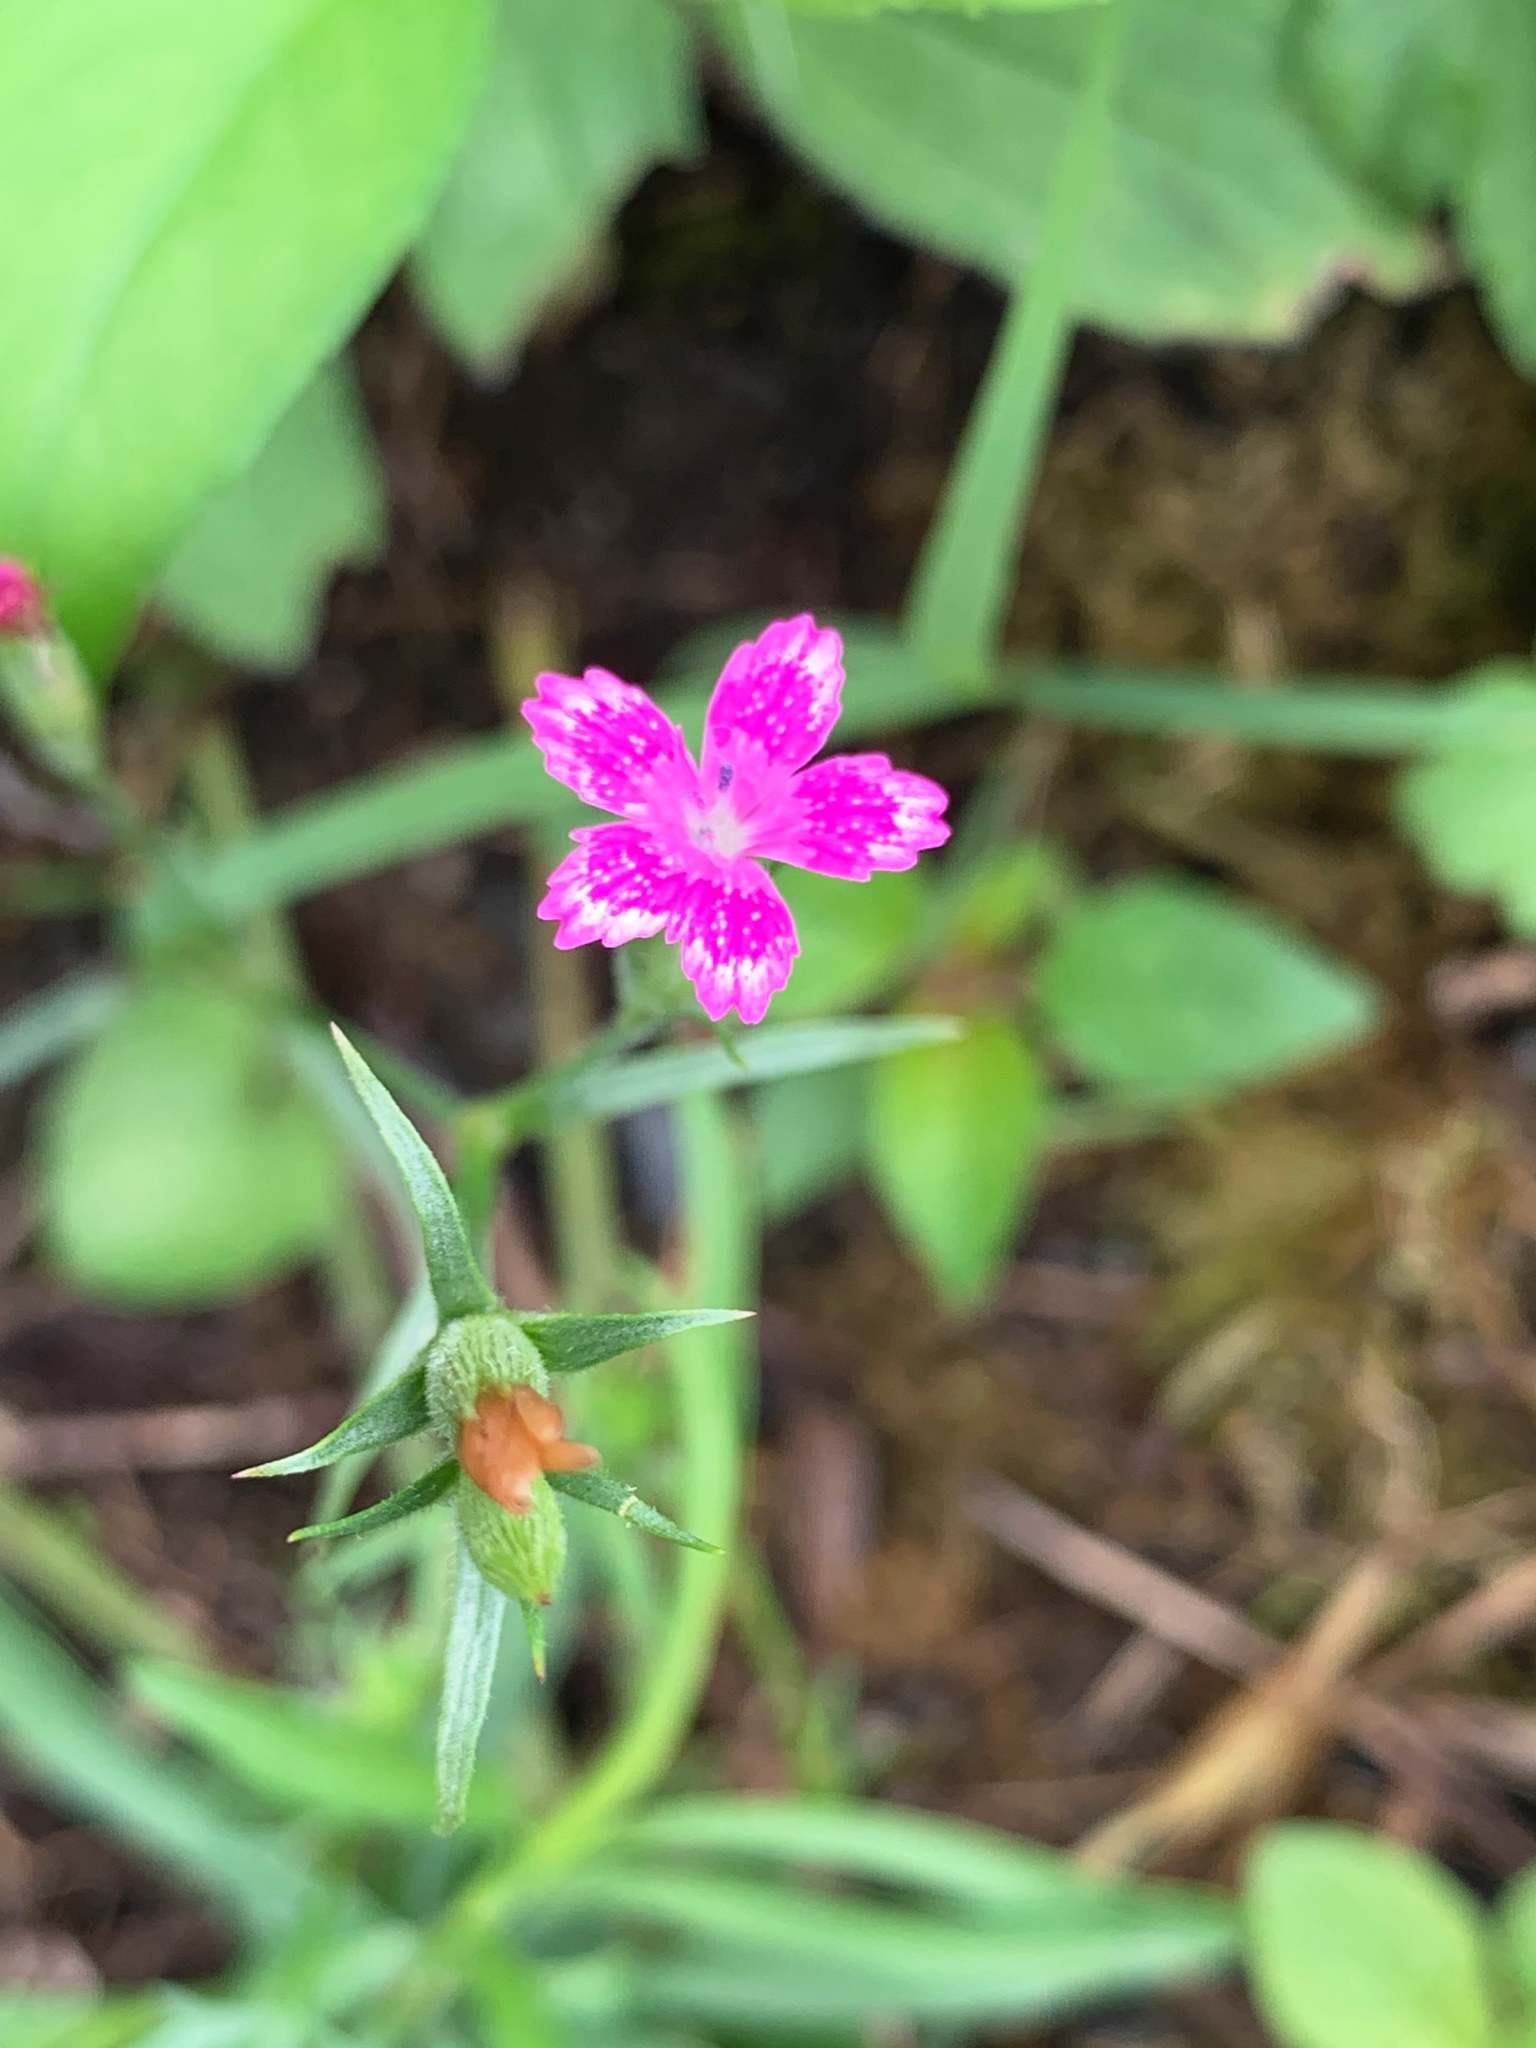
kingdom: Plantae
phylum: Tracheophyta
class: Magnoliopsida
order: Caryophyllales
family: Caryophyllaceae
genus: Dianthus
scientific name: Dianthus armeria
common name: Deptford pink
